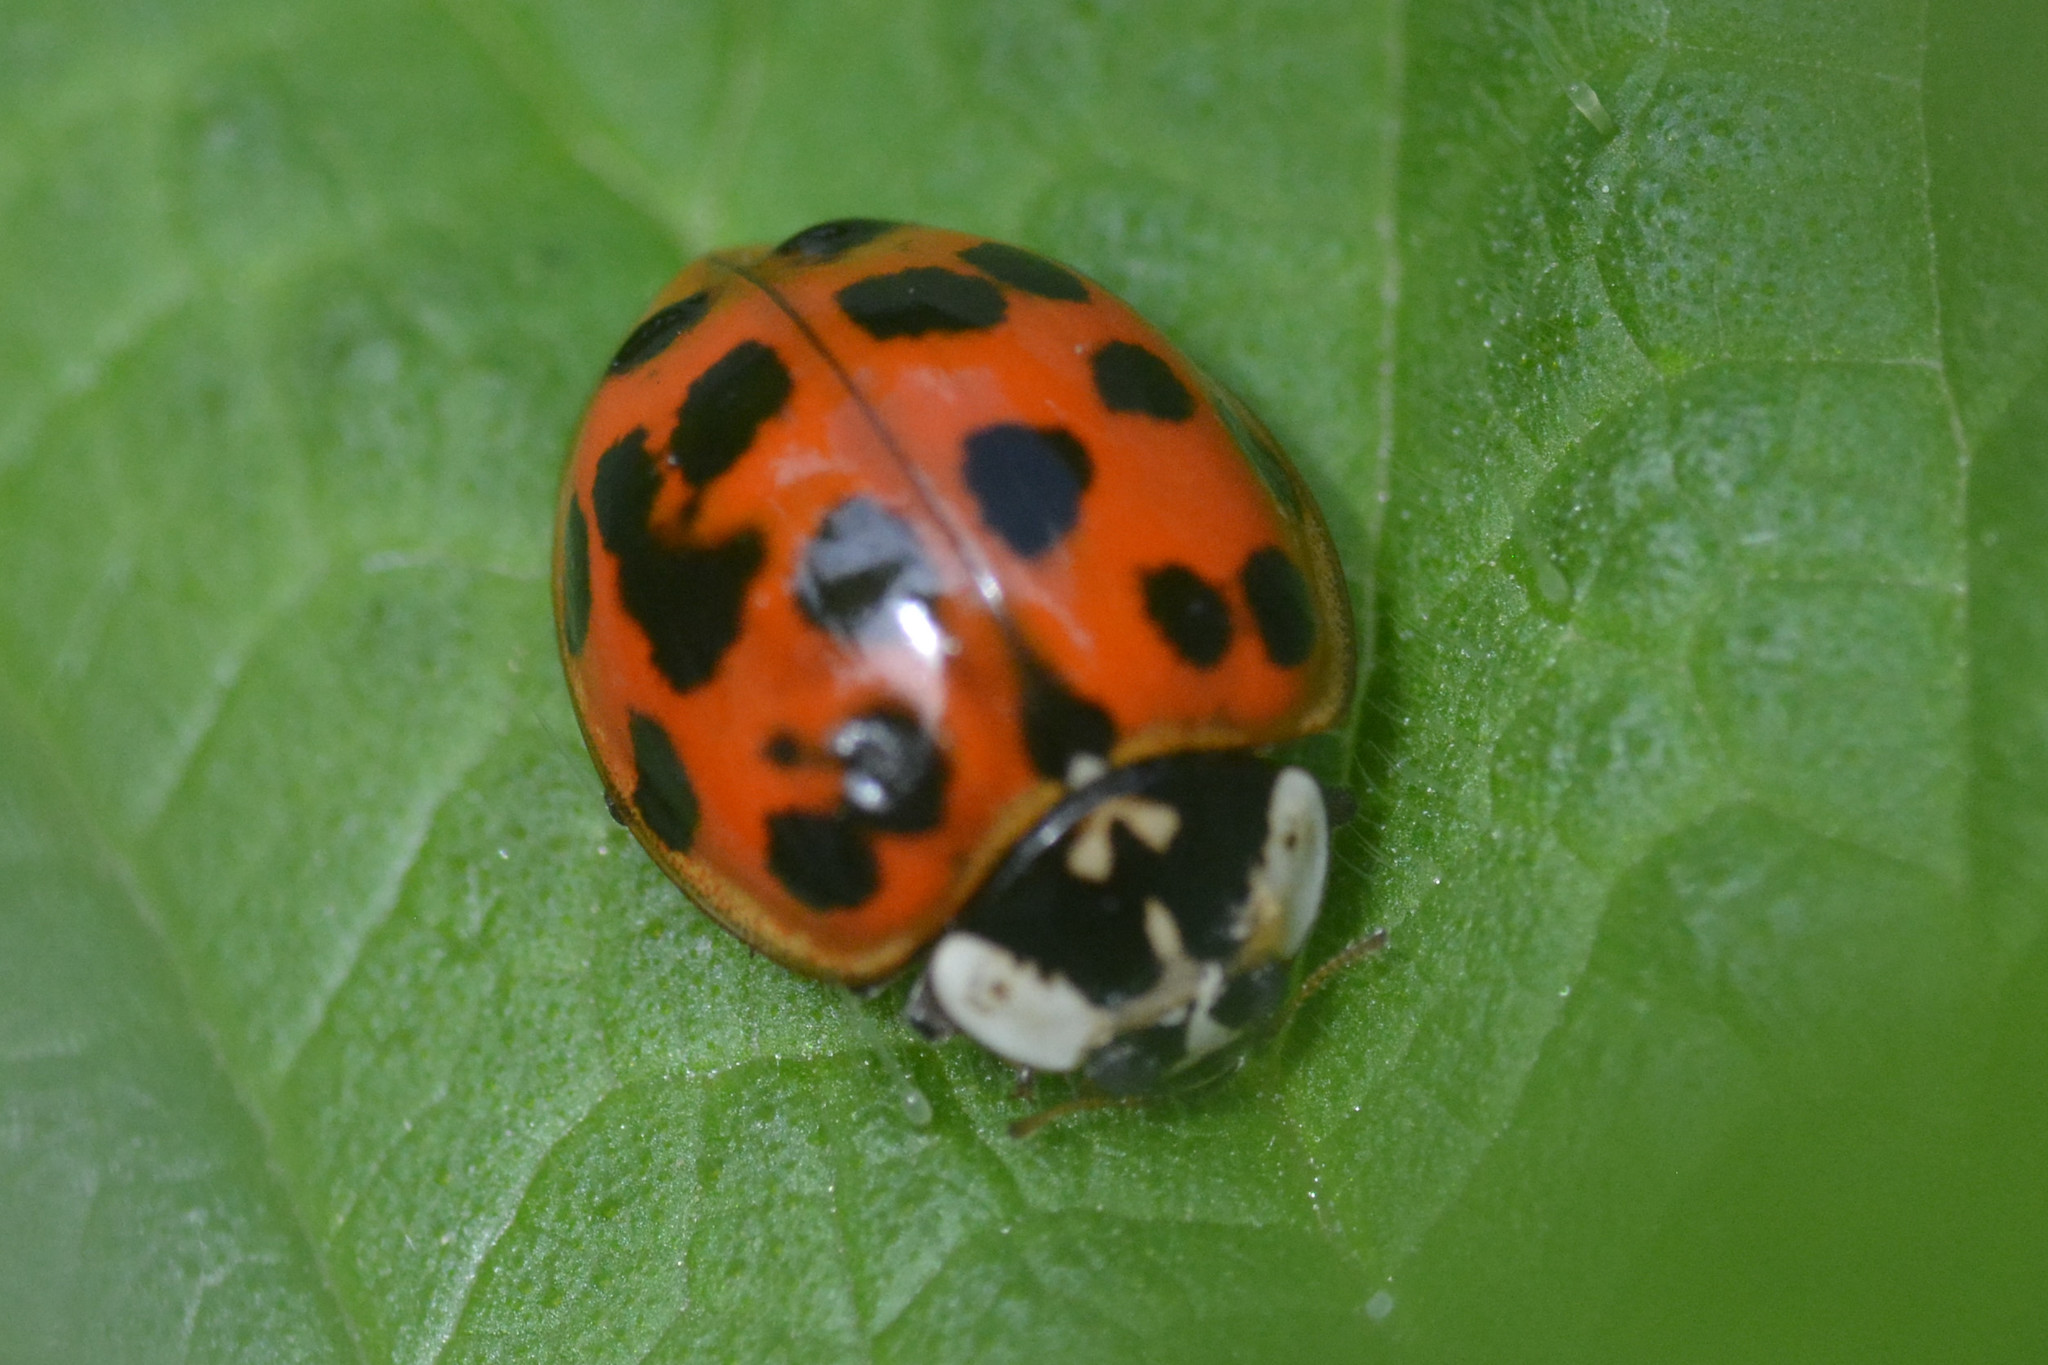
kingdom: Animalia
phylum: Arthropoda
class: Insecta
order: Coleoptera
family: Coccinellidae
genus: Harmonia
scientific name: Harmonia axyridis
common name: Harlequin ladybird
